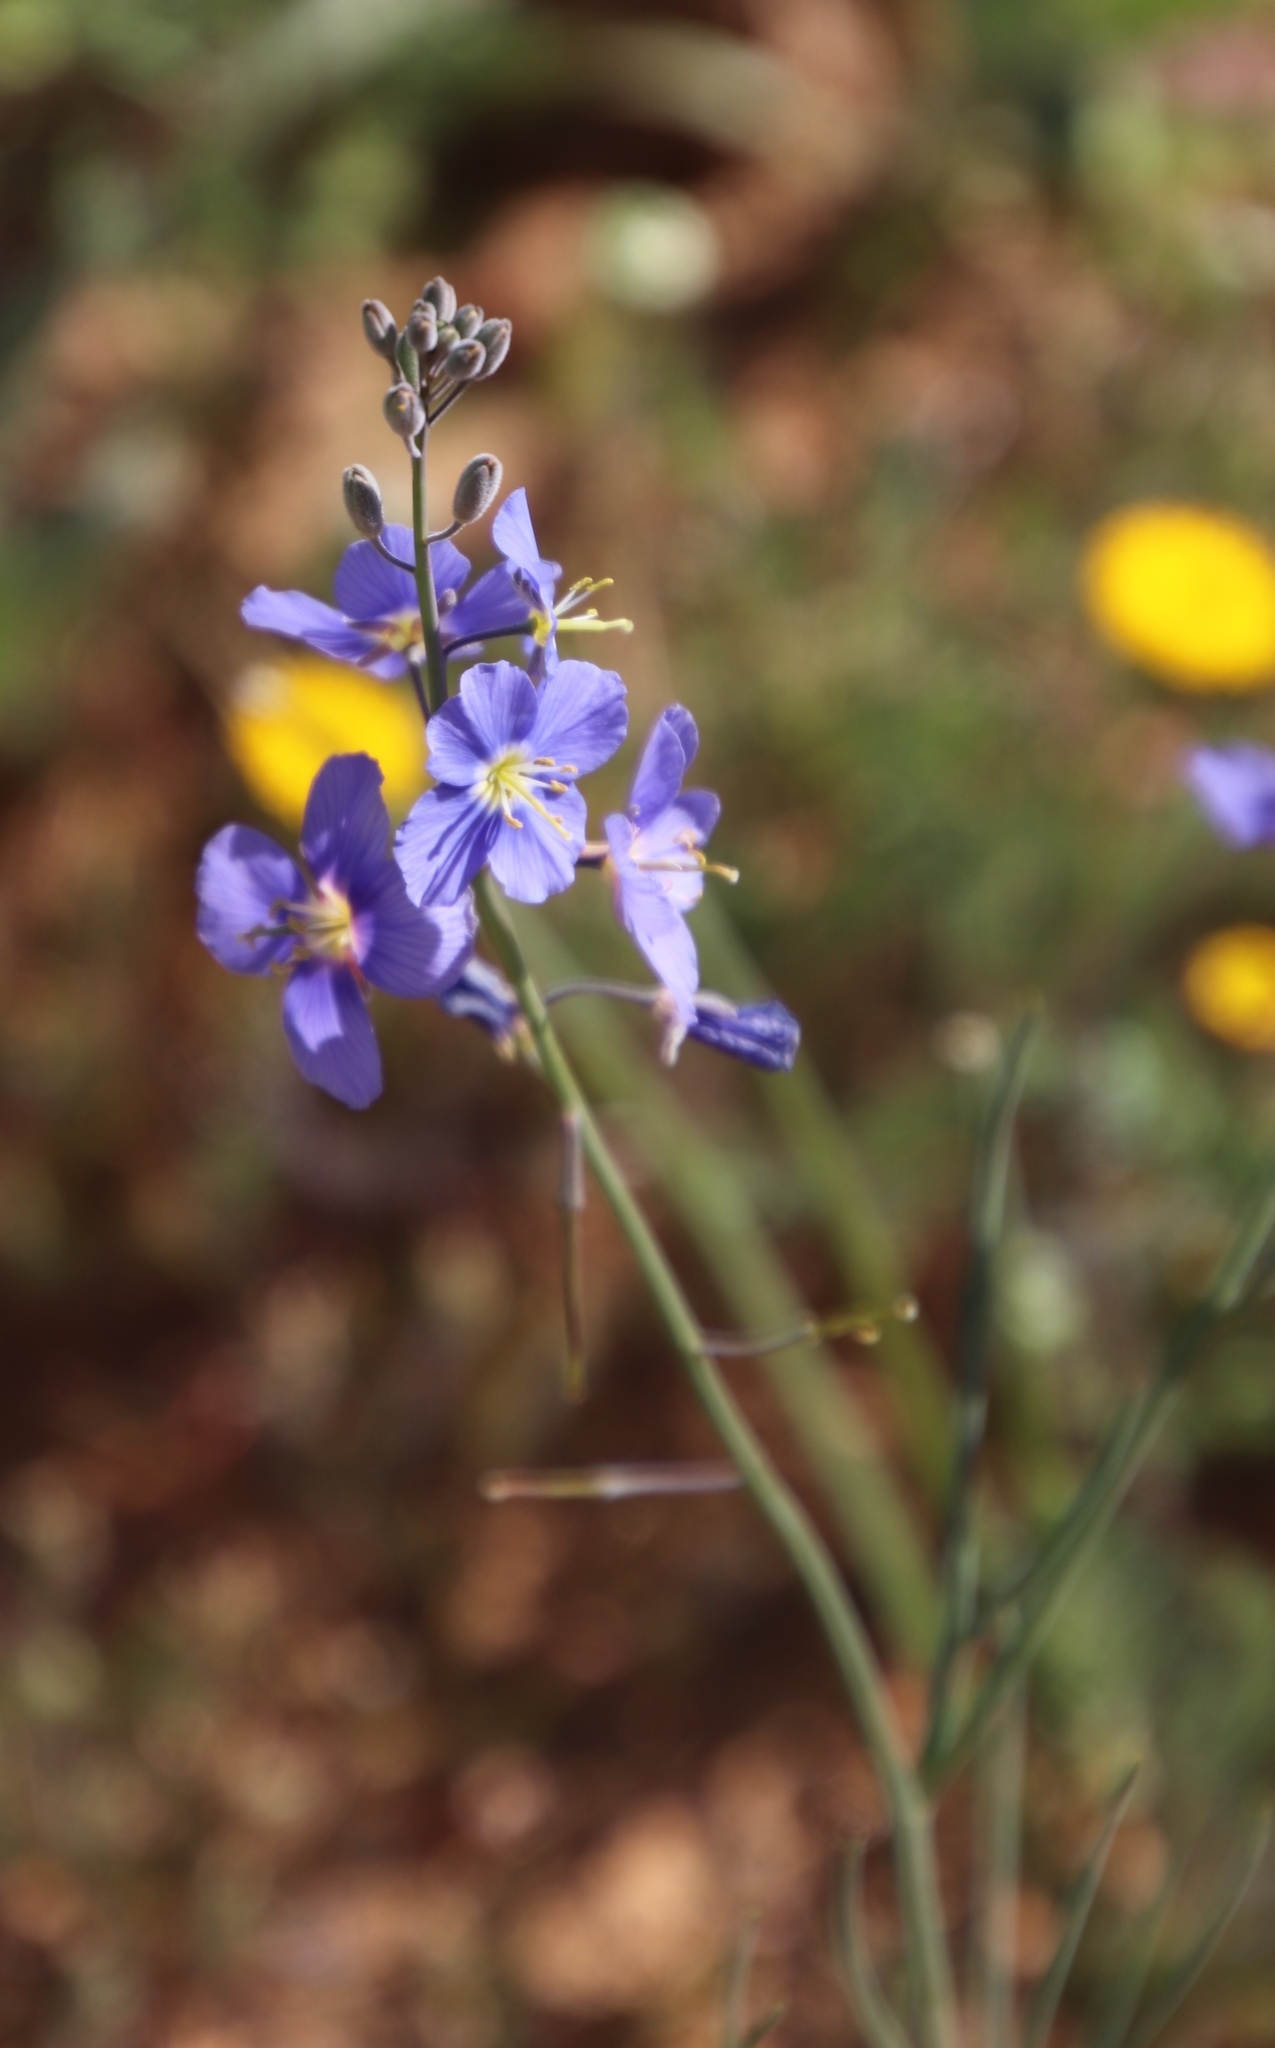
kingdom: Plantae
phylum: Tracheophyta
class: Magnoliopsida
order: Brassicales
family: Brassicaceae
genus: Heliophila
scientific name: Heliophila arenaria
